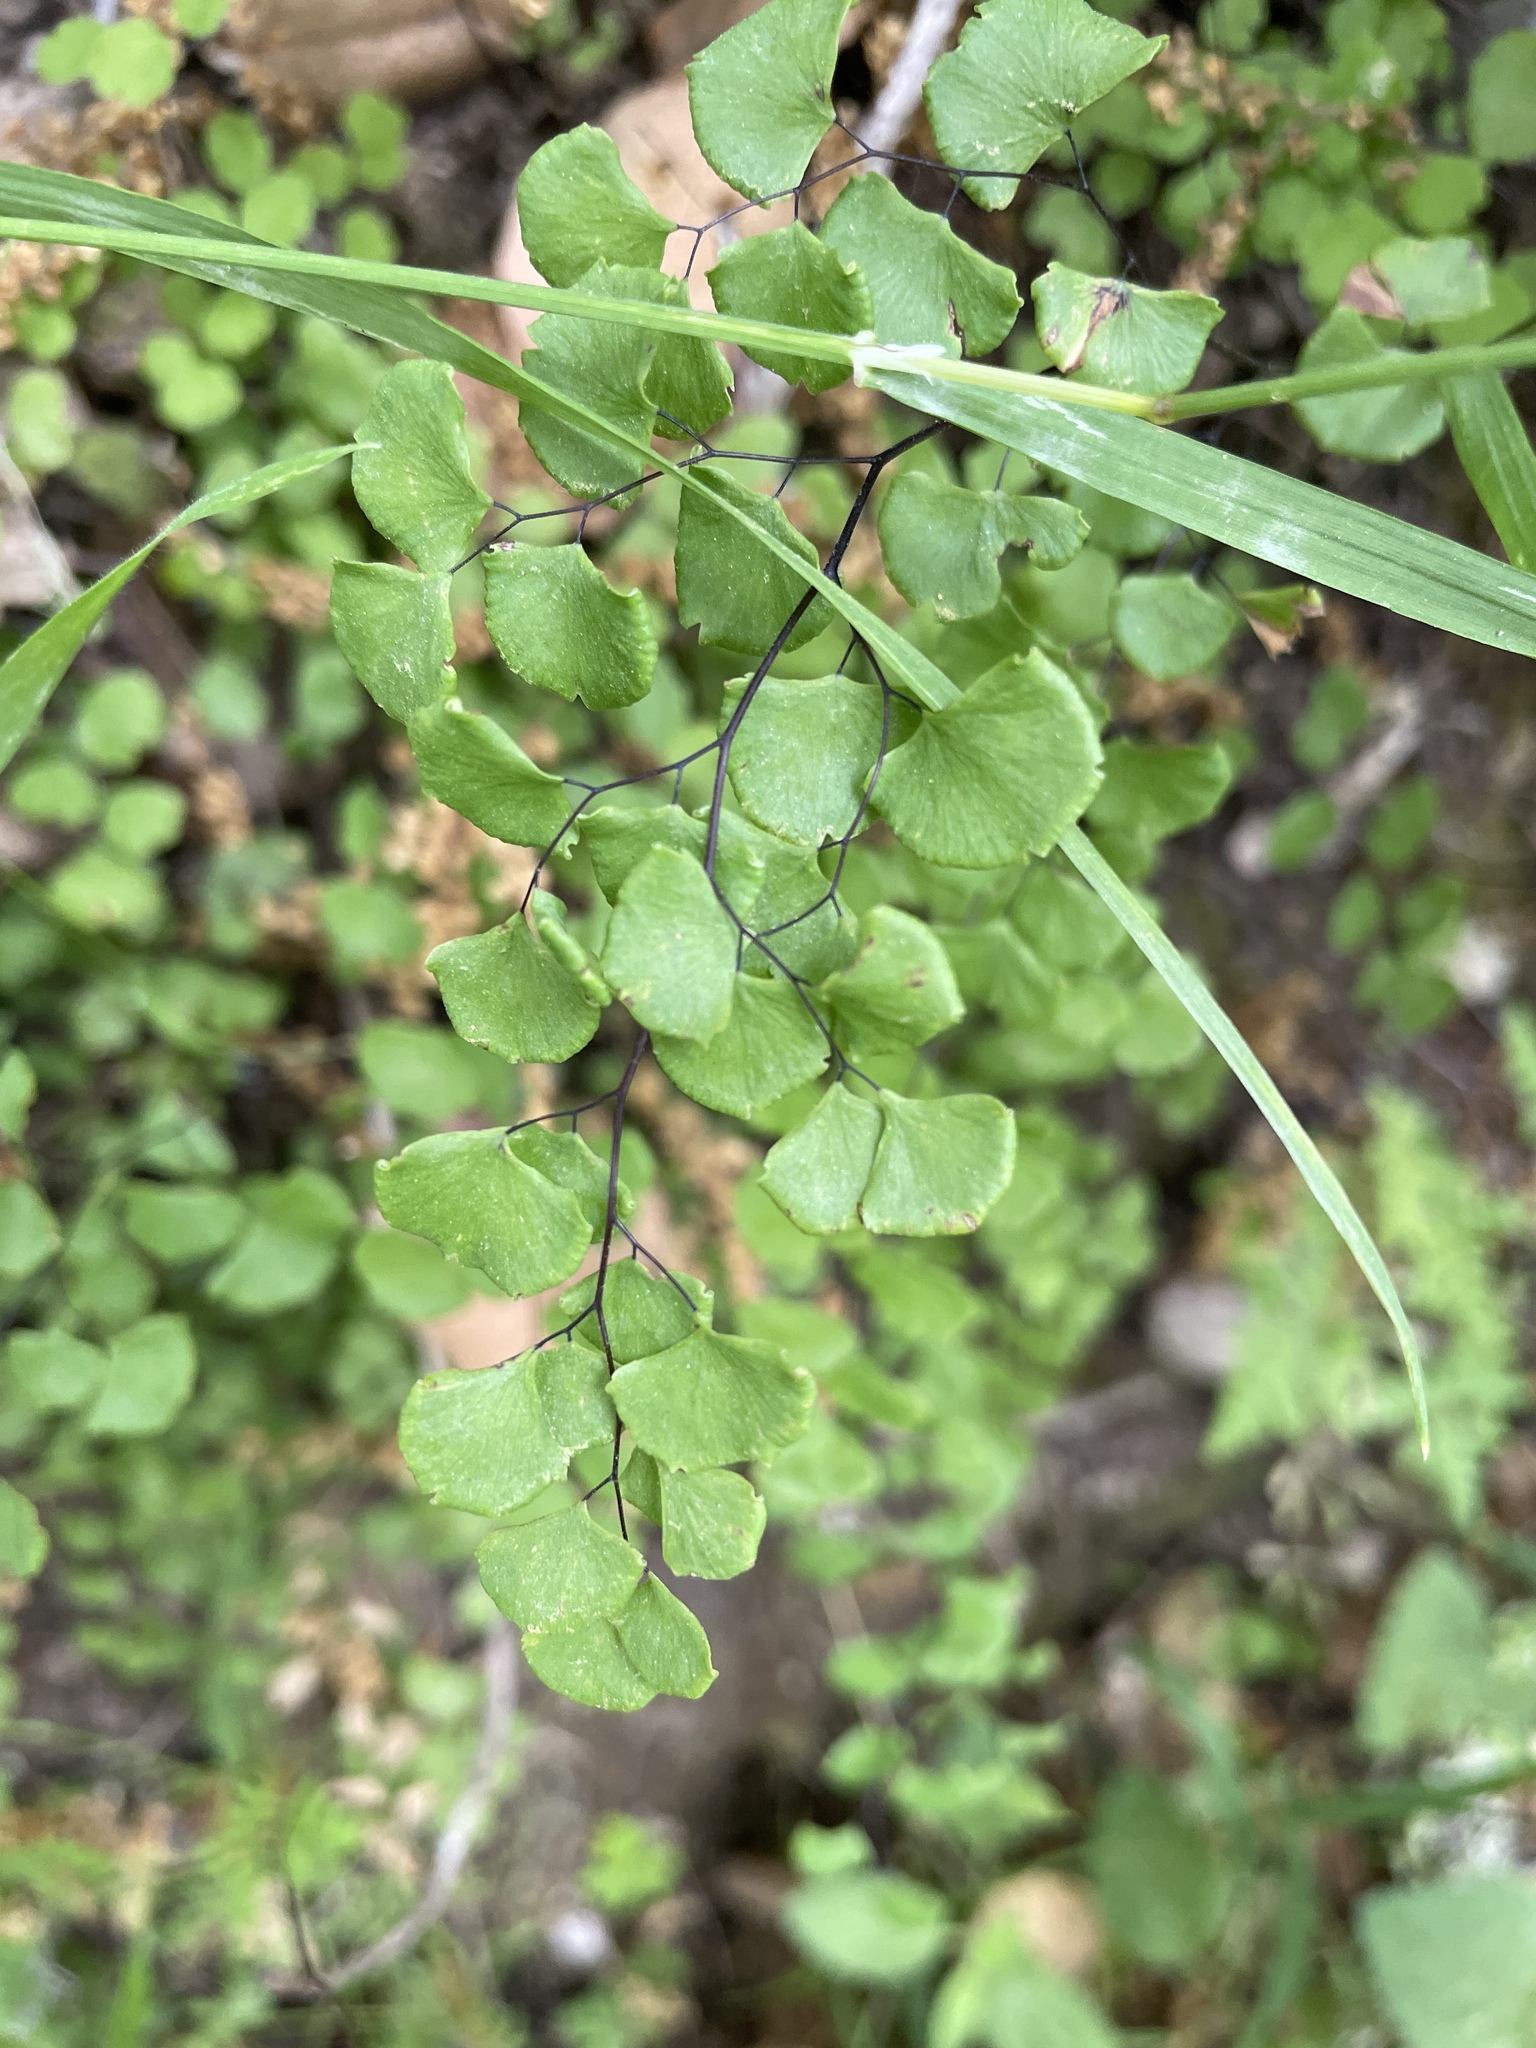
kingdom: Plantae
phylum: Tracheophyta
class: Polypodiopsida
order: Polypodiales
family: Pteridaceae
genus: Adiantum
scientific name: Adiantum jordanii
